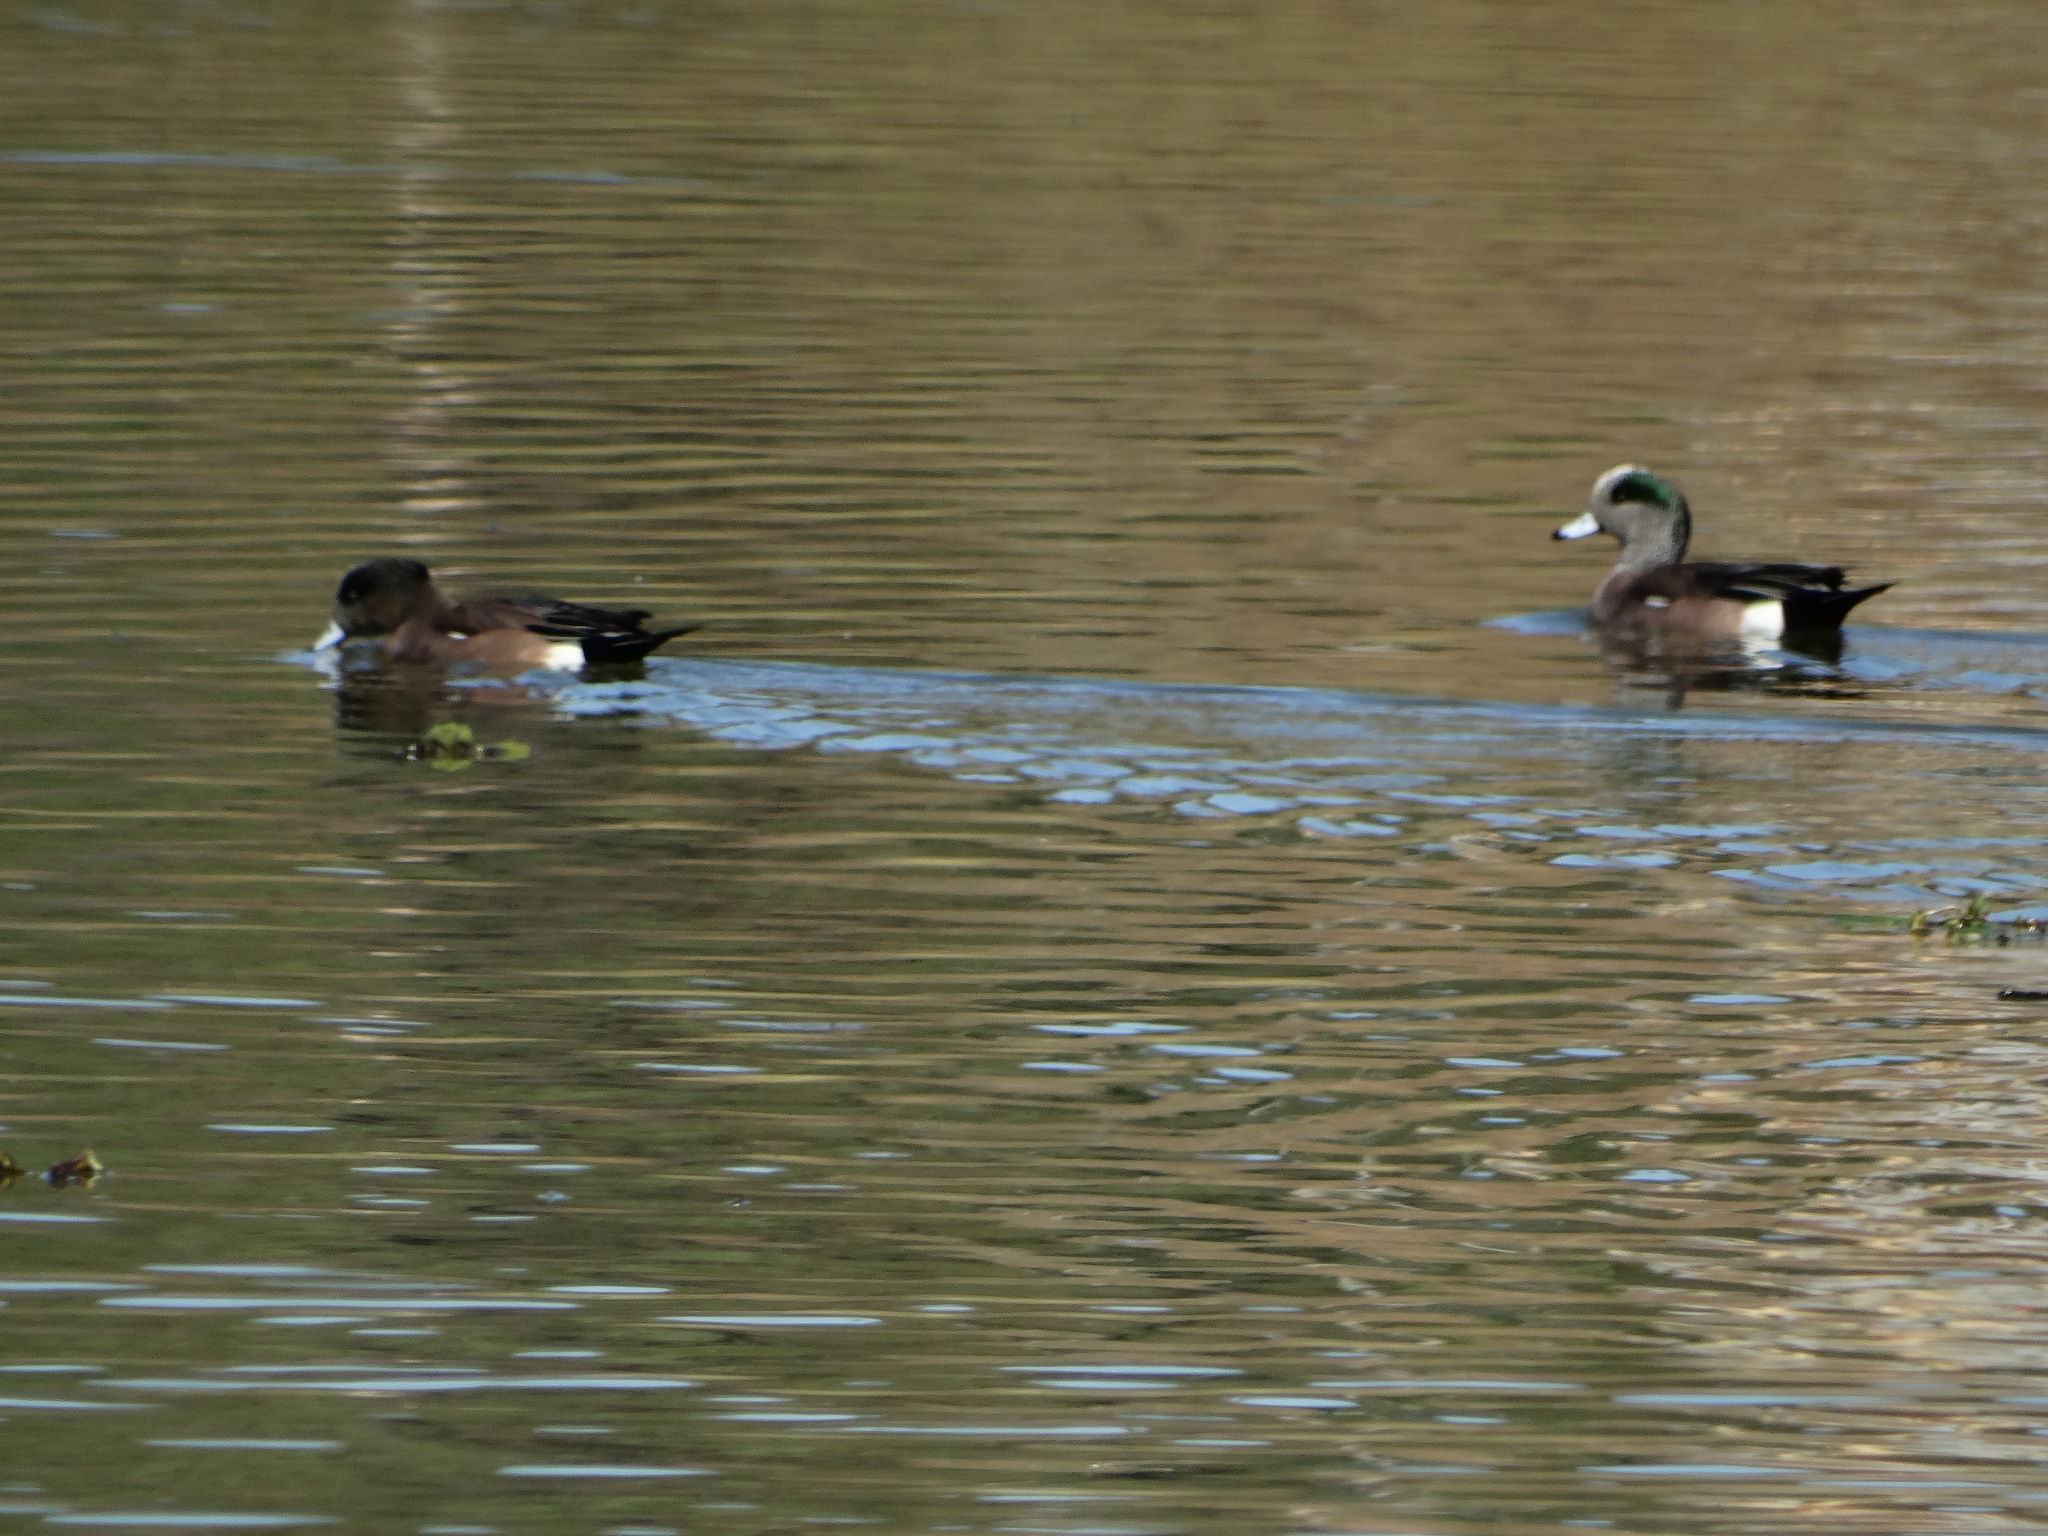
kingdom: Animalia
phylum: Chordata
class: Aves
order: Anseriformes
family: Anatidae
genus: Mareca
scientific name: Mareca americana
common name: American wigeon
